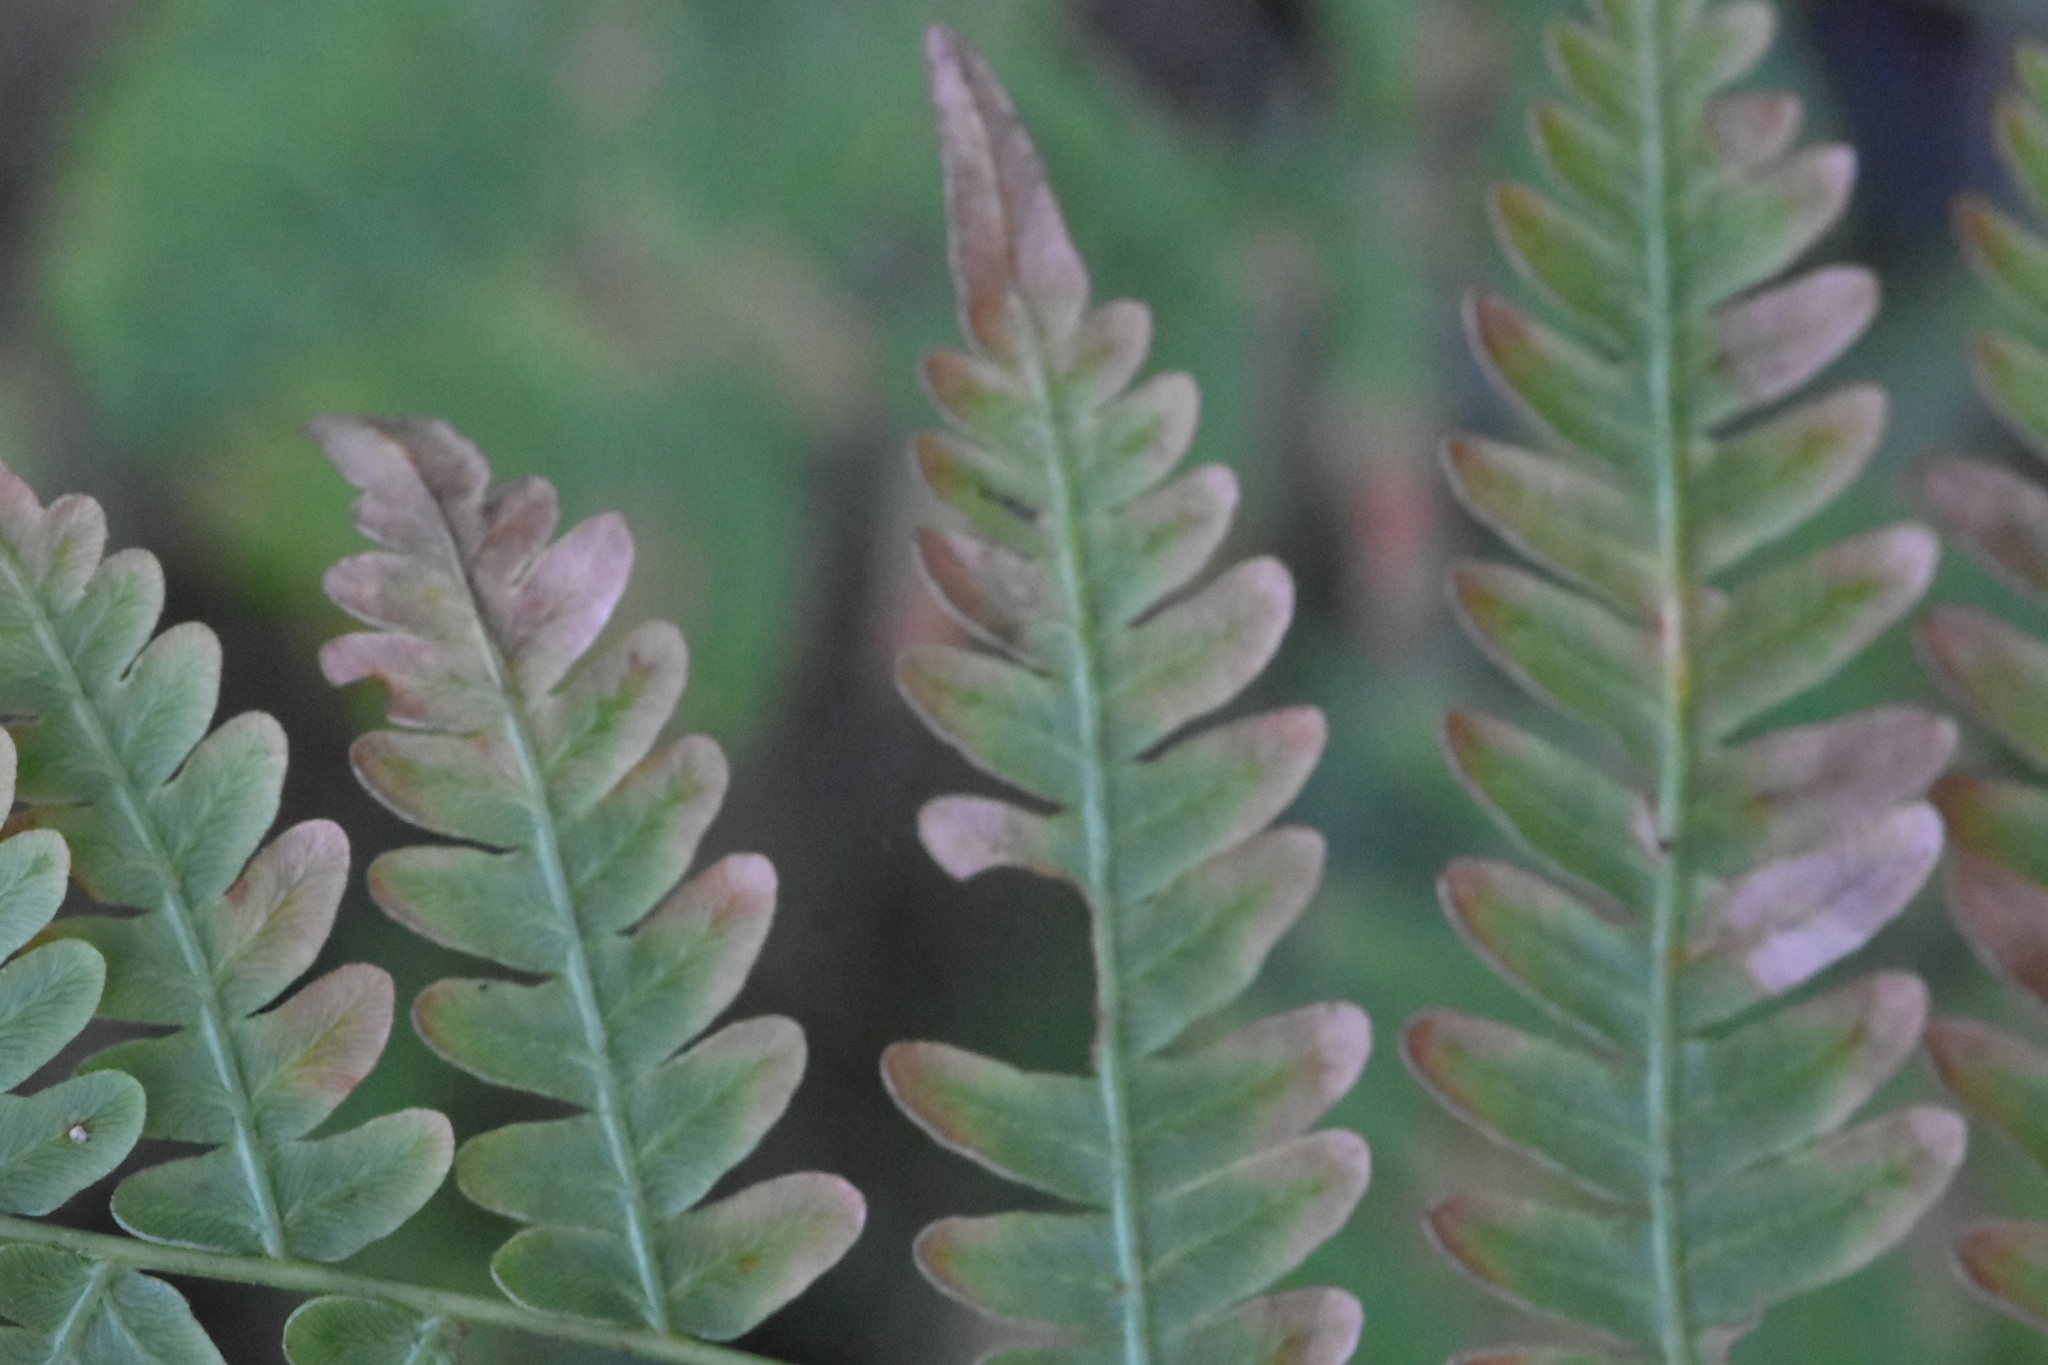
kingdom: Plantae
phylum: Tracheophyta
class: Polypodiopsida
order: Polypodiales
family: Dennstaedtiaceae
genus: Pteridium
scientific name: Pteridium aquilinum
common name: Bracken
